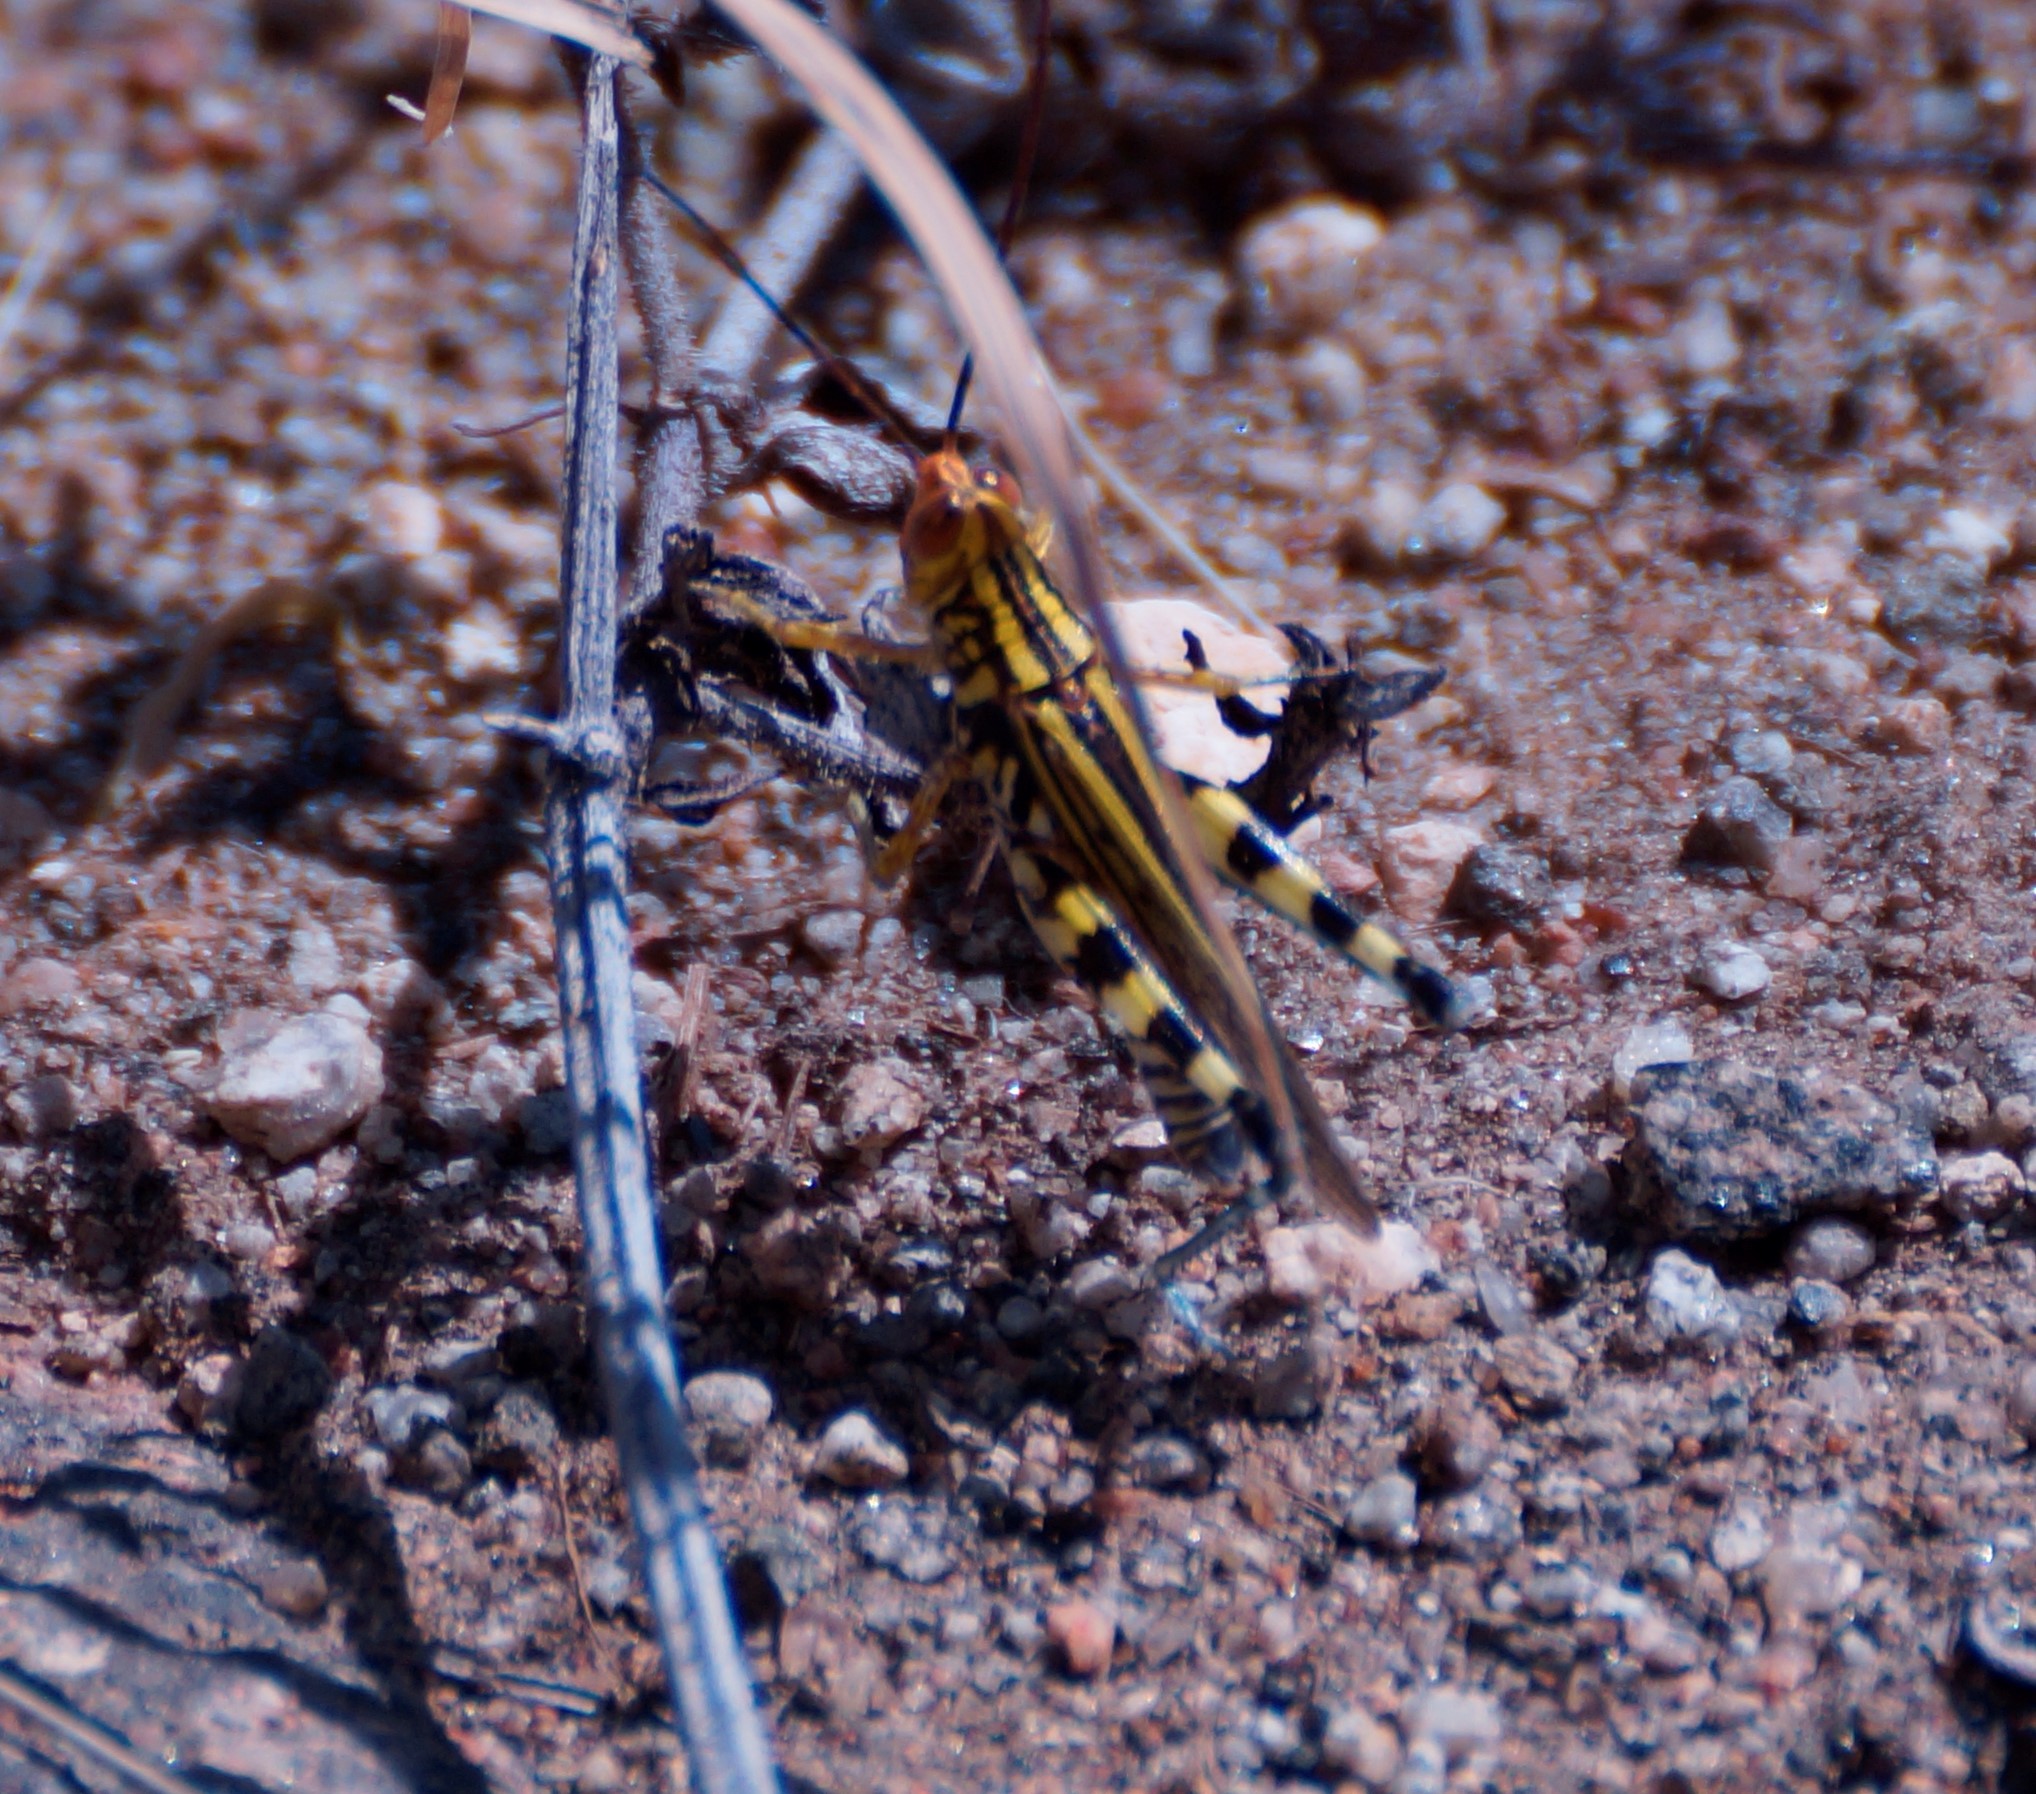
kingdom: Animalia
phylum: Arthropoda
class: Insecta
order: Orthoptera
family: Acrididae
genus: Zebratula
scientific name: Zebratula flavonigra
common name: Zebra grasshopper
